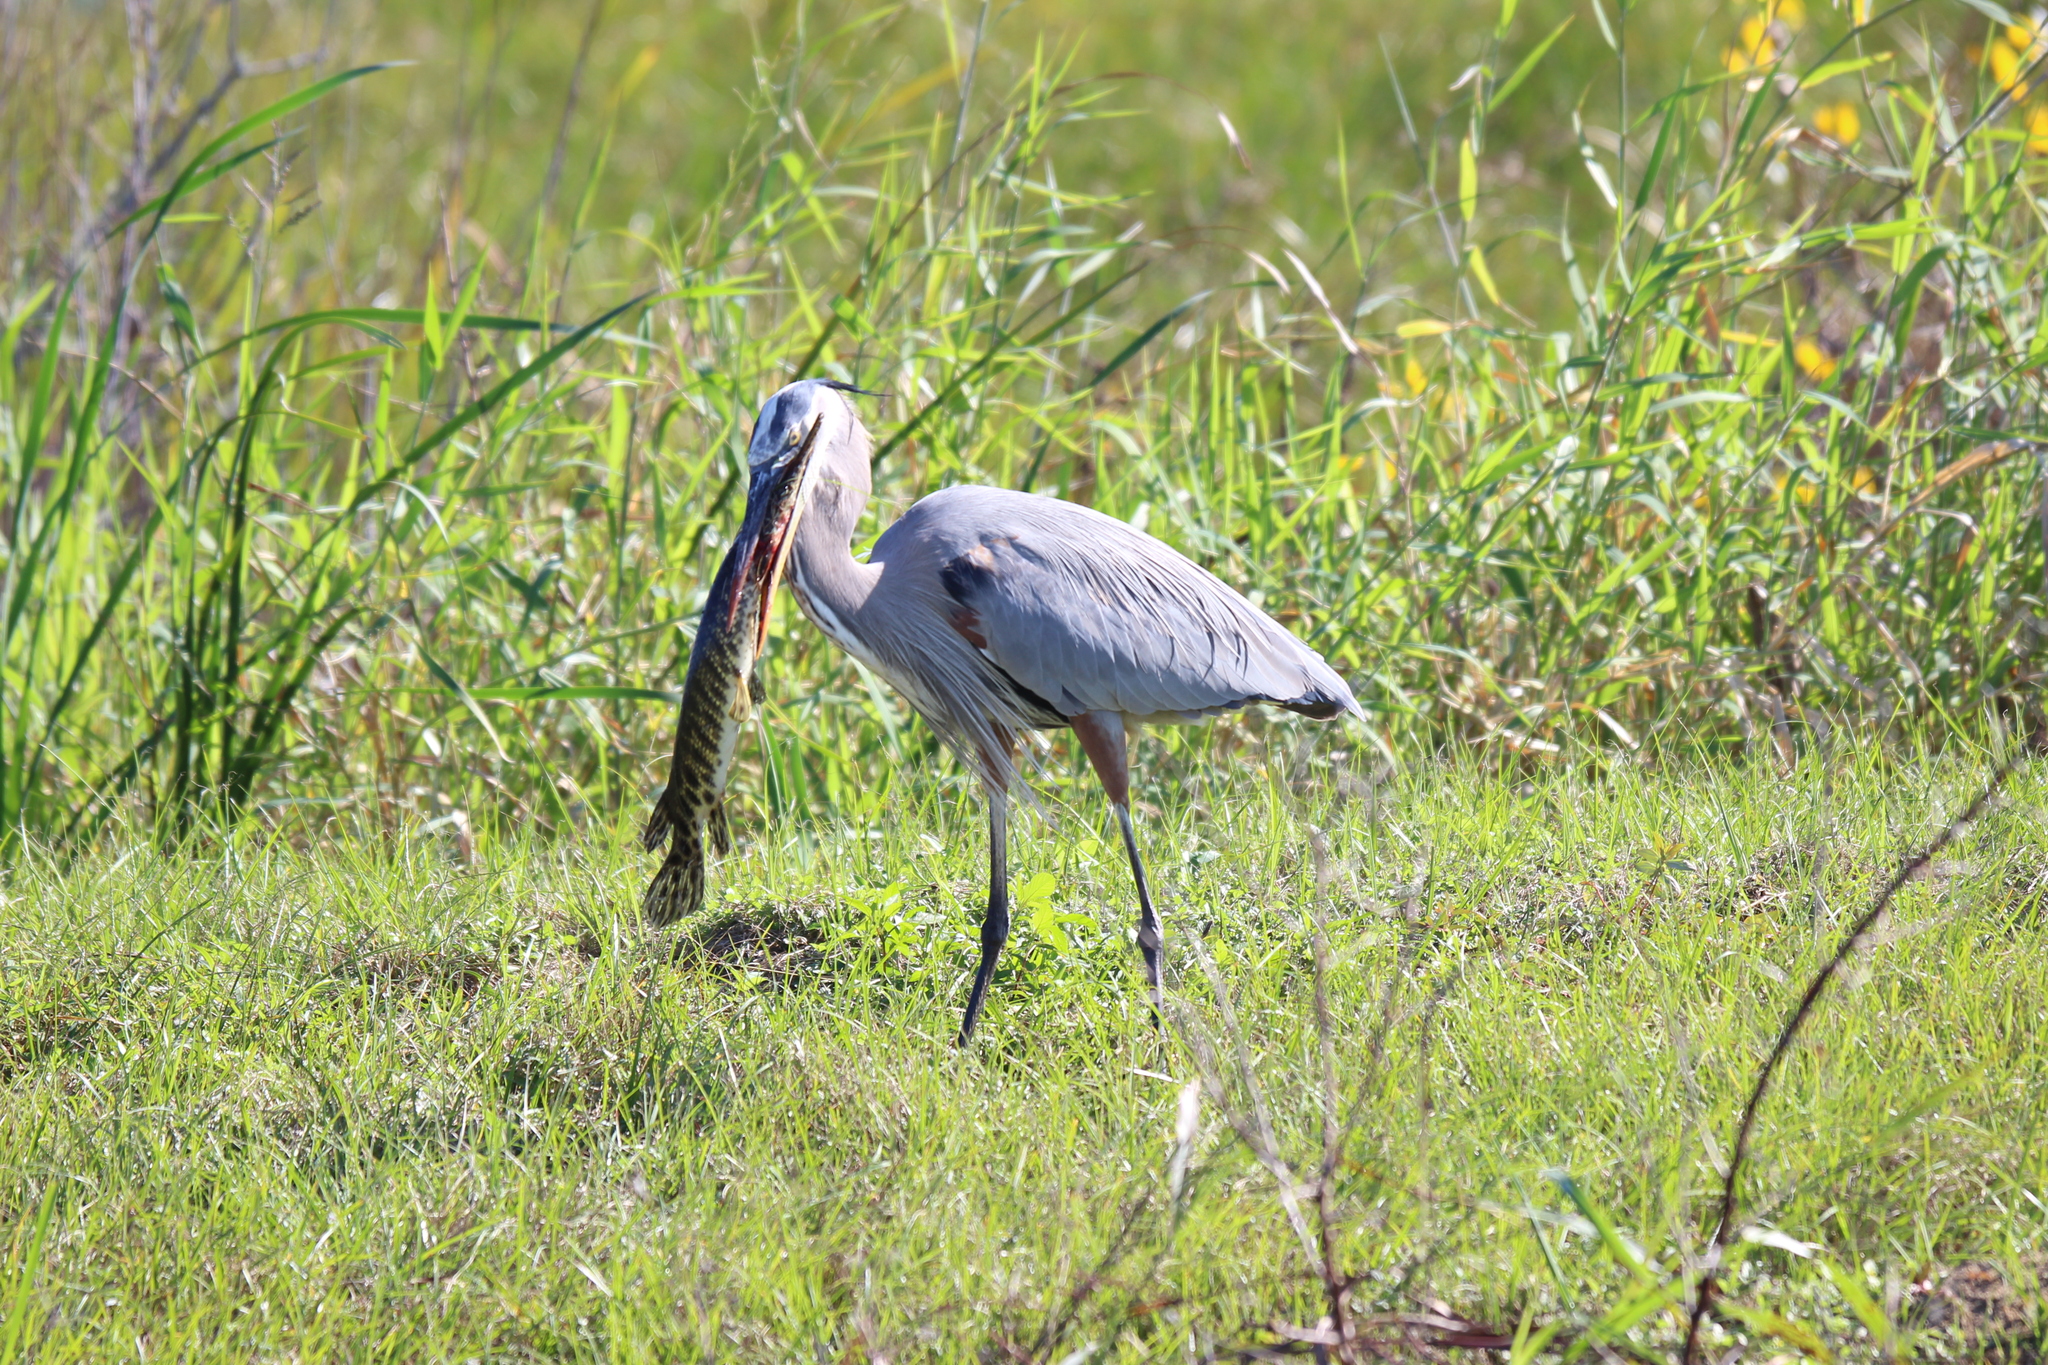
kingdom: Animalia
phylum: Chordata
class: Aves
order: Pelecaniformes
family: Ardeidae
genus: Ardea
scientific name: Ardea herodias
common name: Great blue heron
